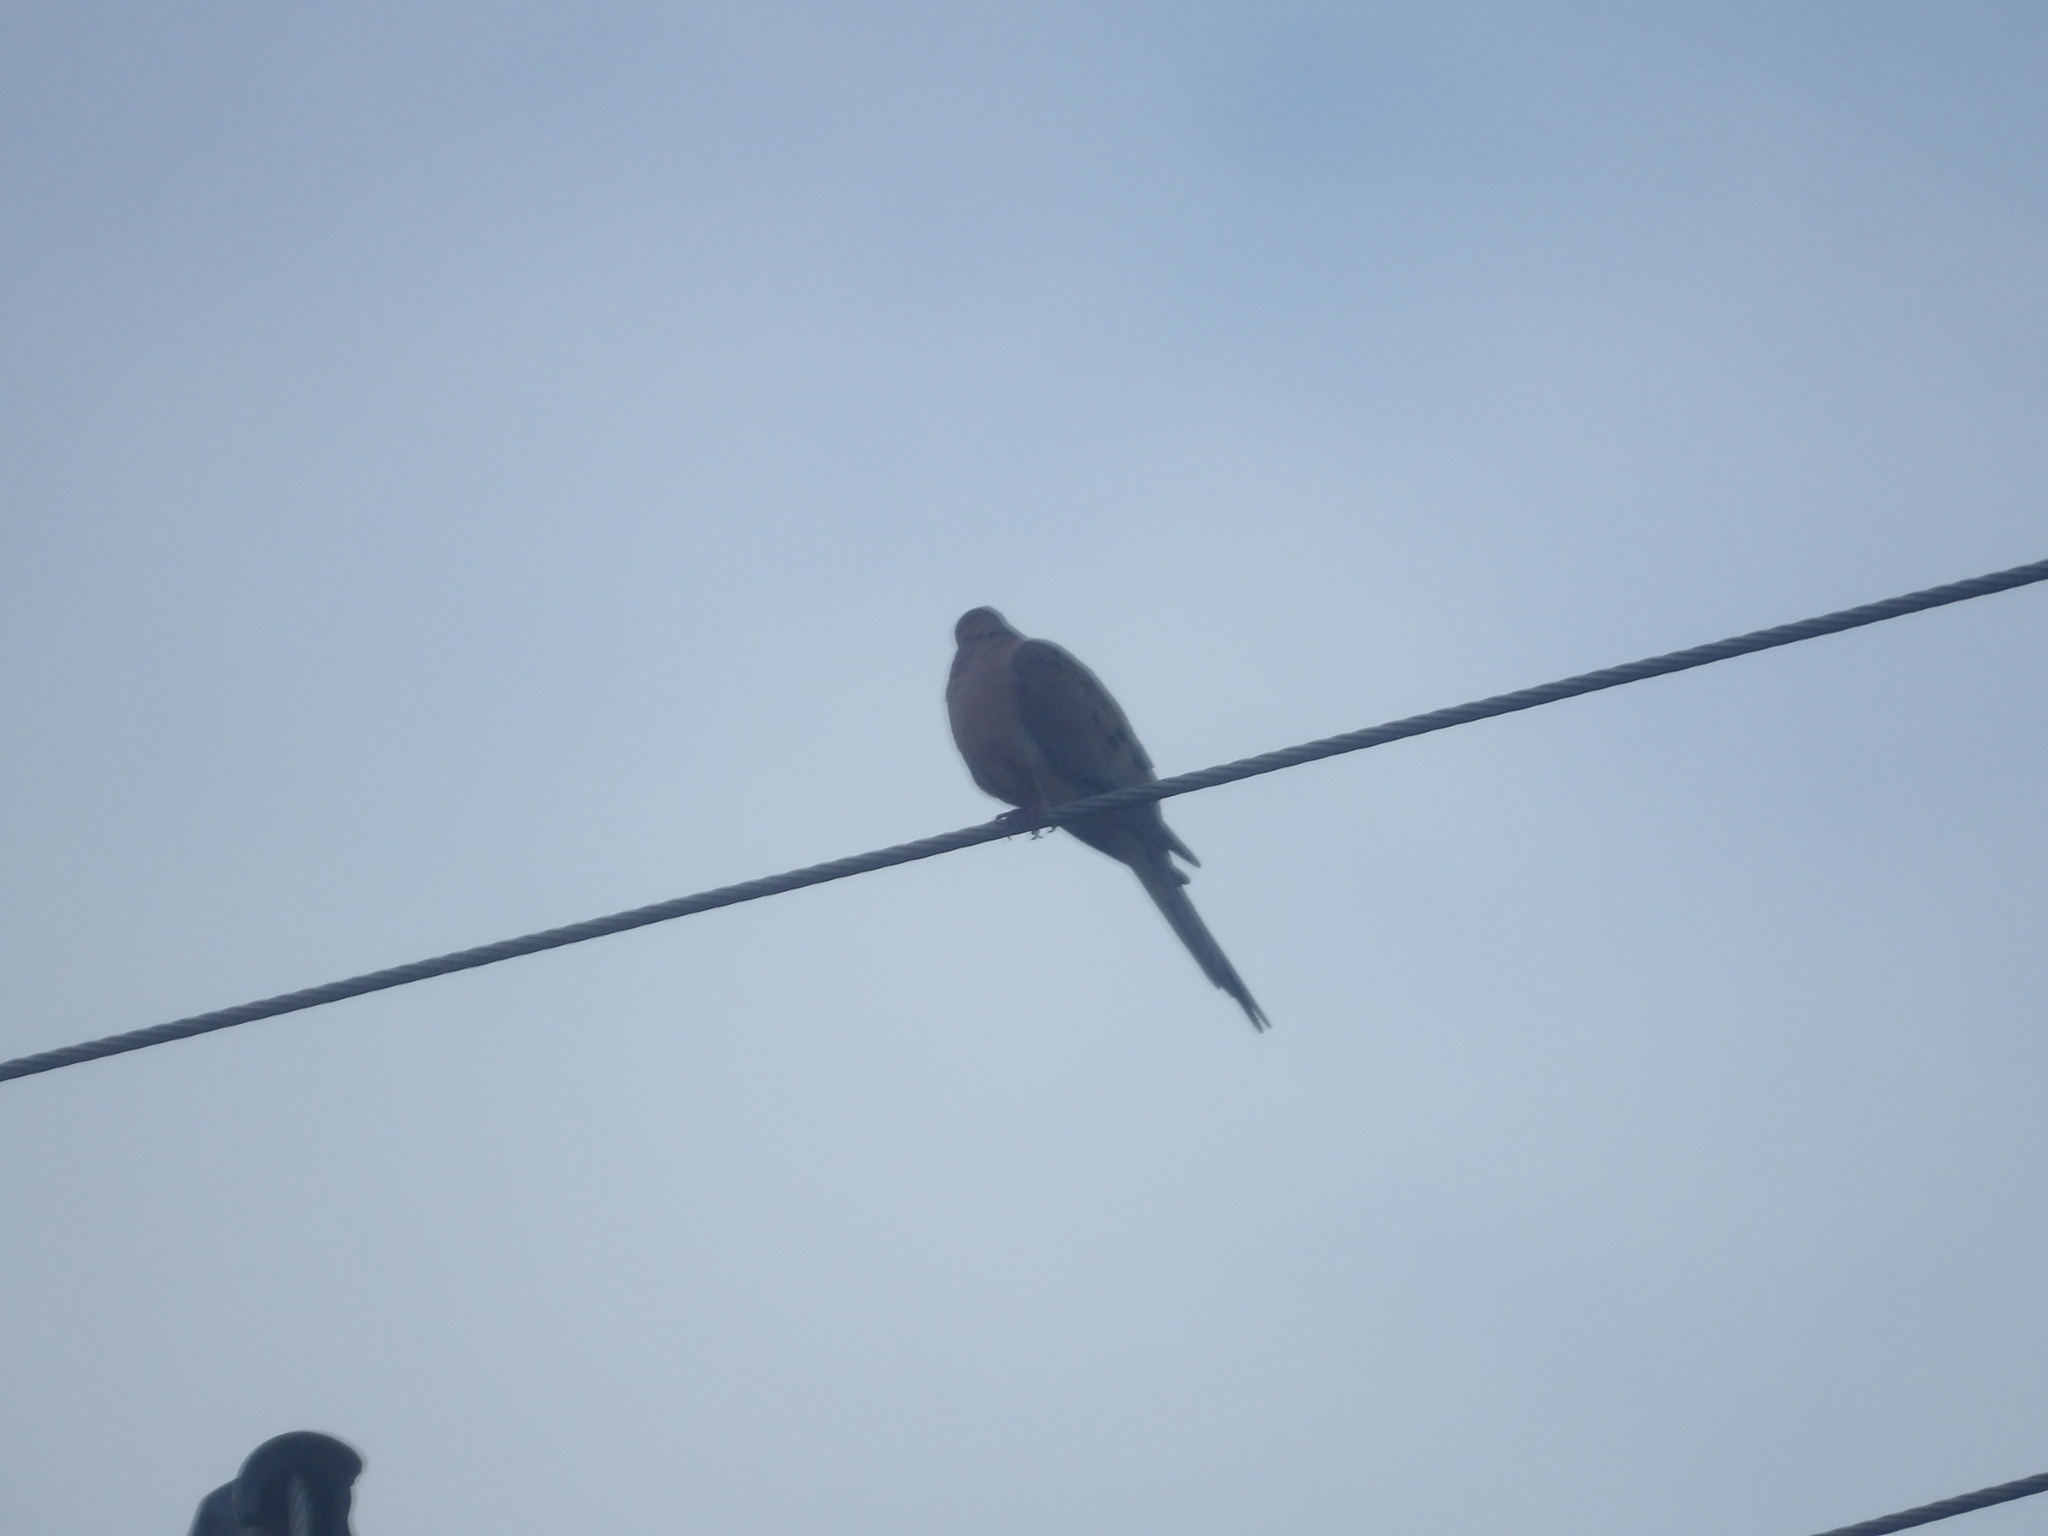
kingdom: Animalia
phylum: Chordata
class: Aves
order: Columbiformes
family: Columbidae
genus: Zenaida
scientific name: Zenaida macroura
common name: Mourning dove
